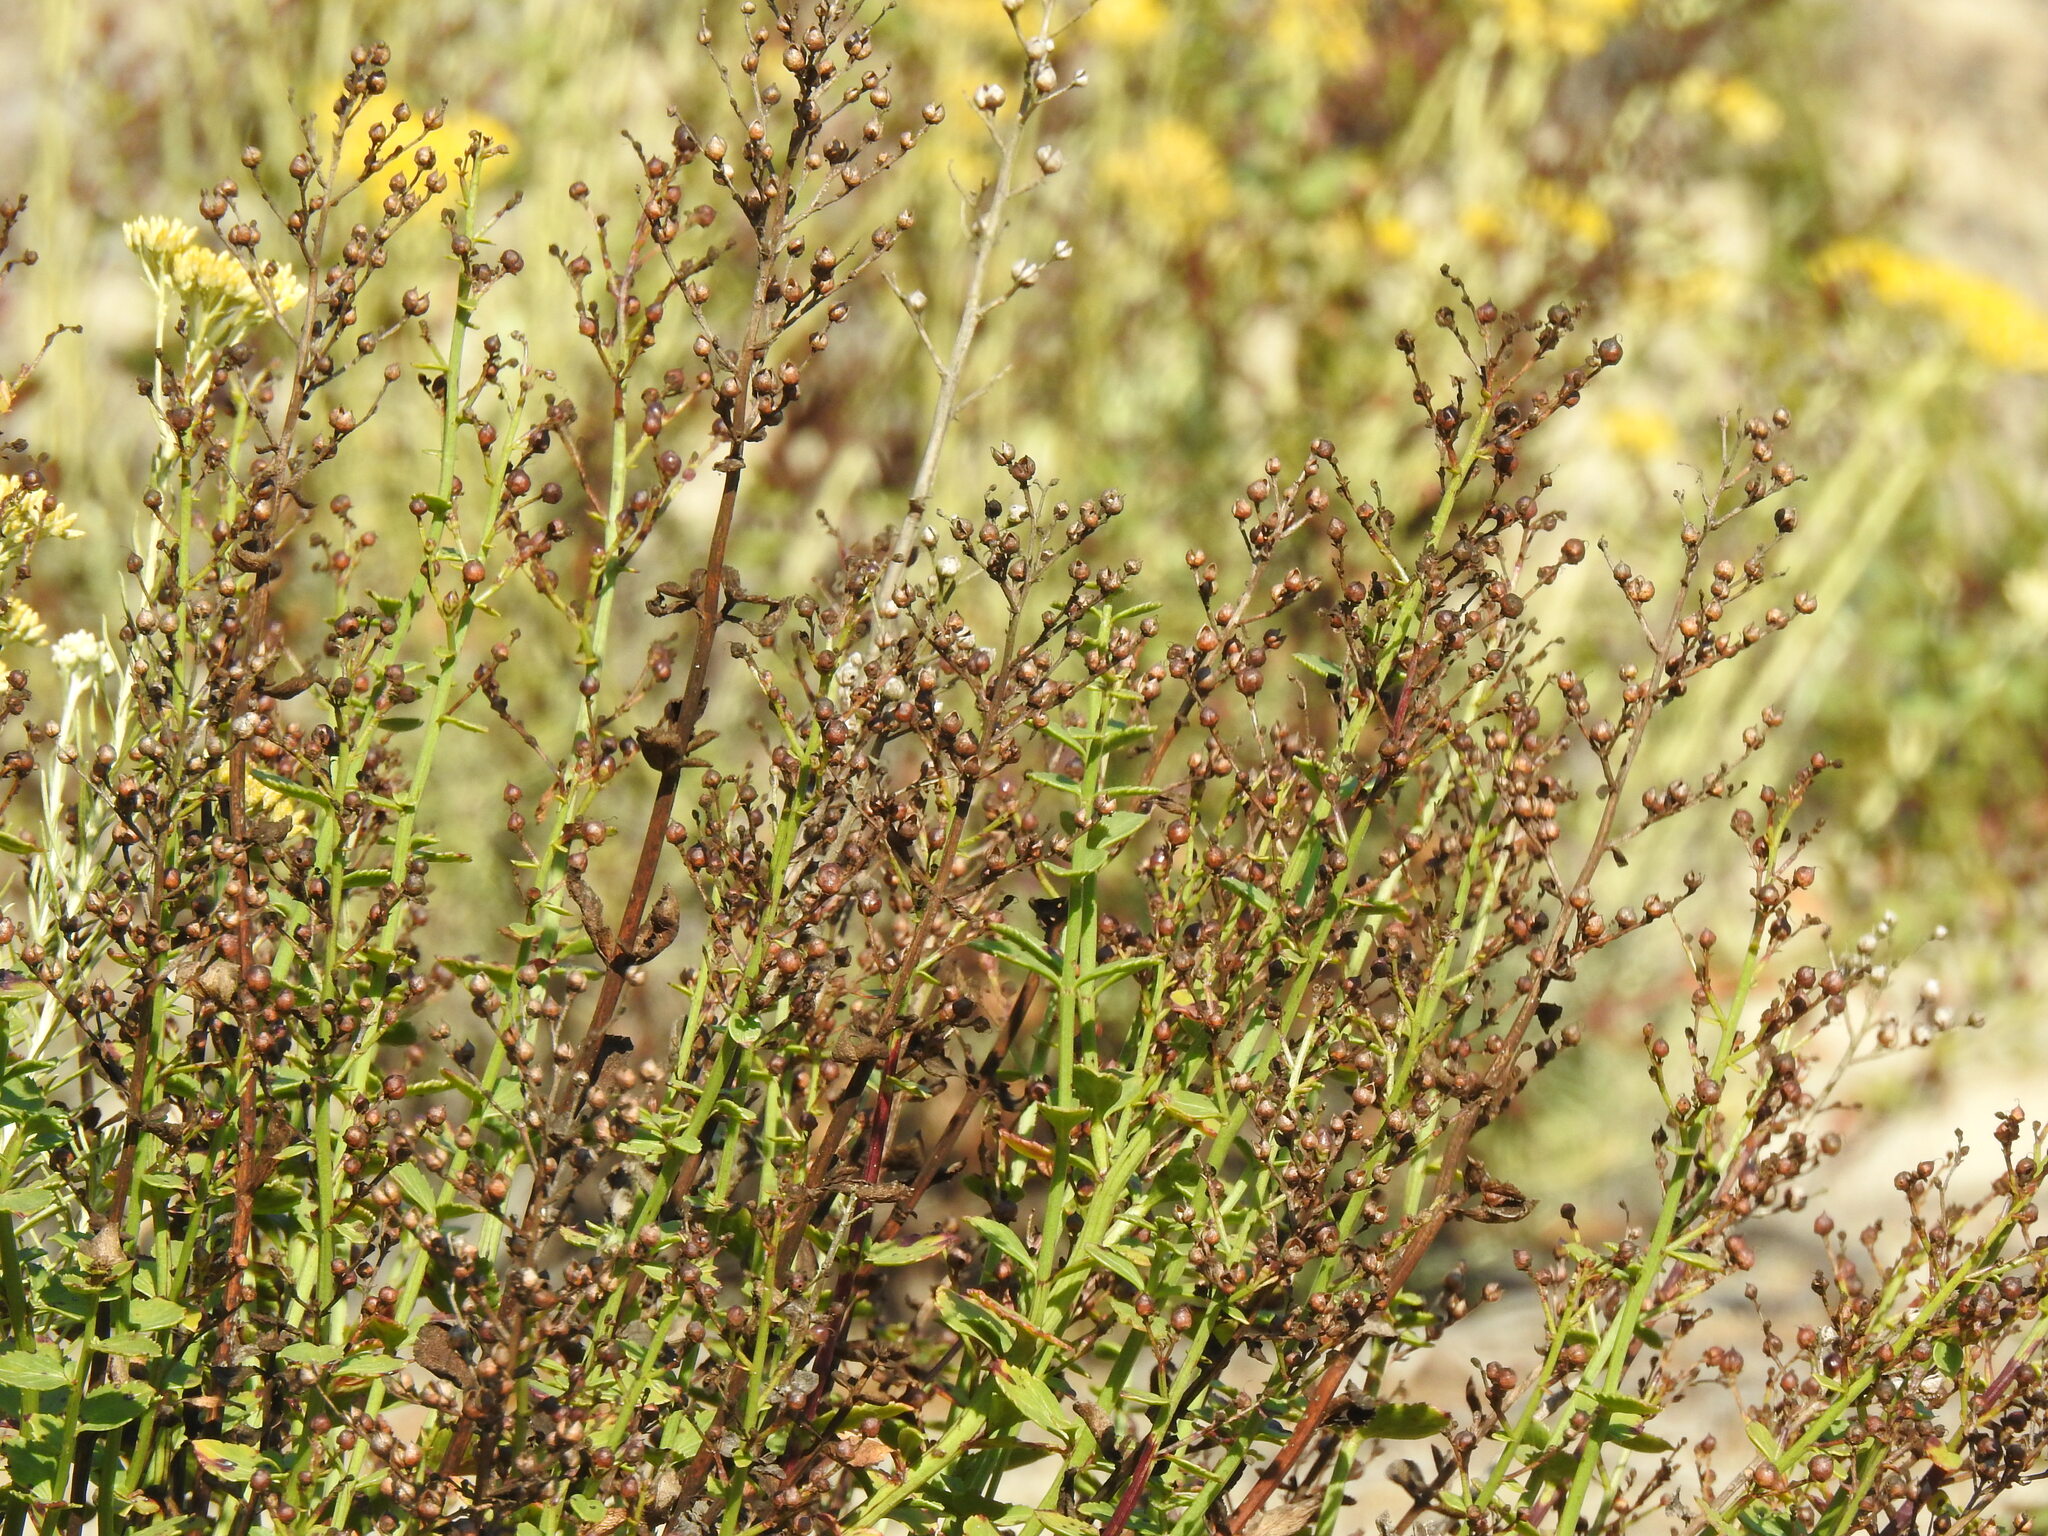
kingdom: Plantae
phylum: Tracheophyta
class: Magnoliopsida
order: Lamiales
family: Scrophulariaceae
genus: Scrophularia
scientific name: Scrophularia frutescens
